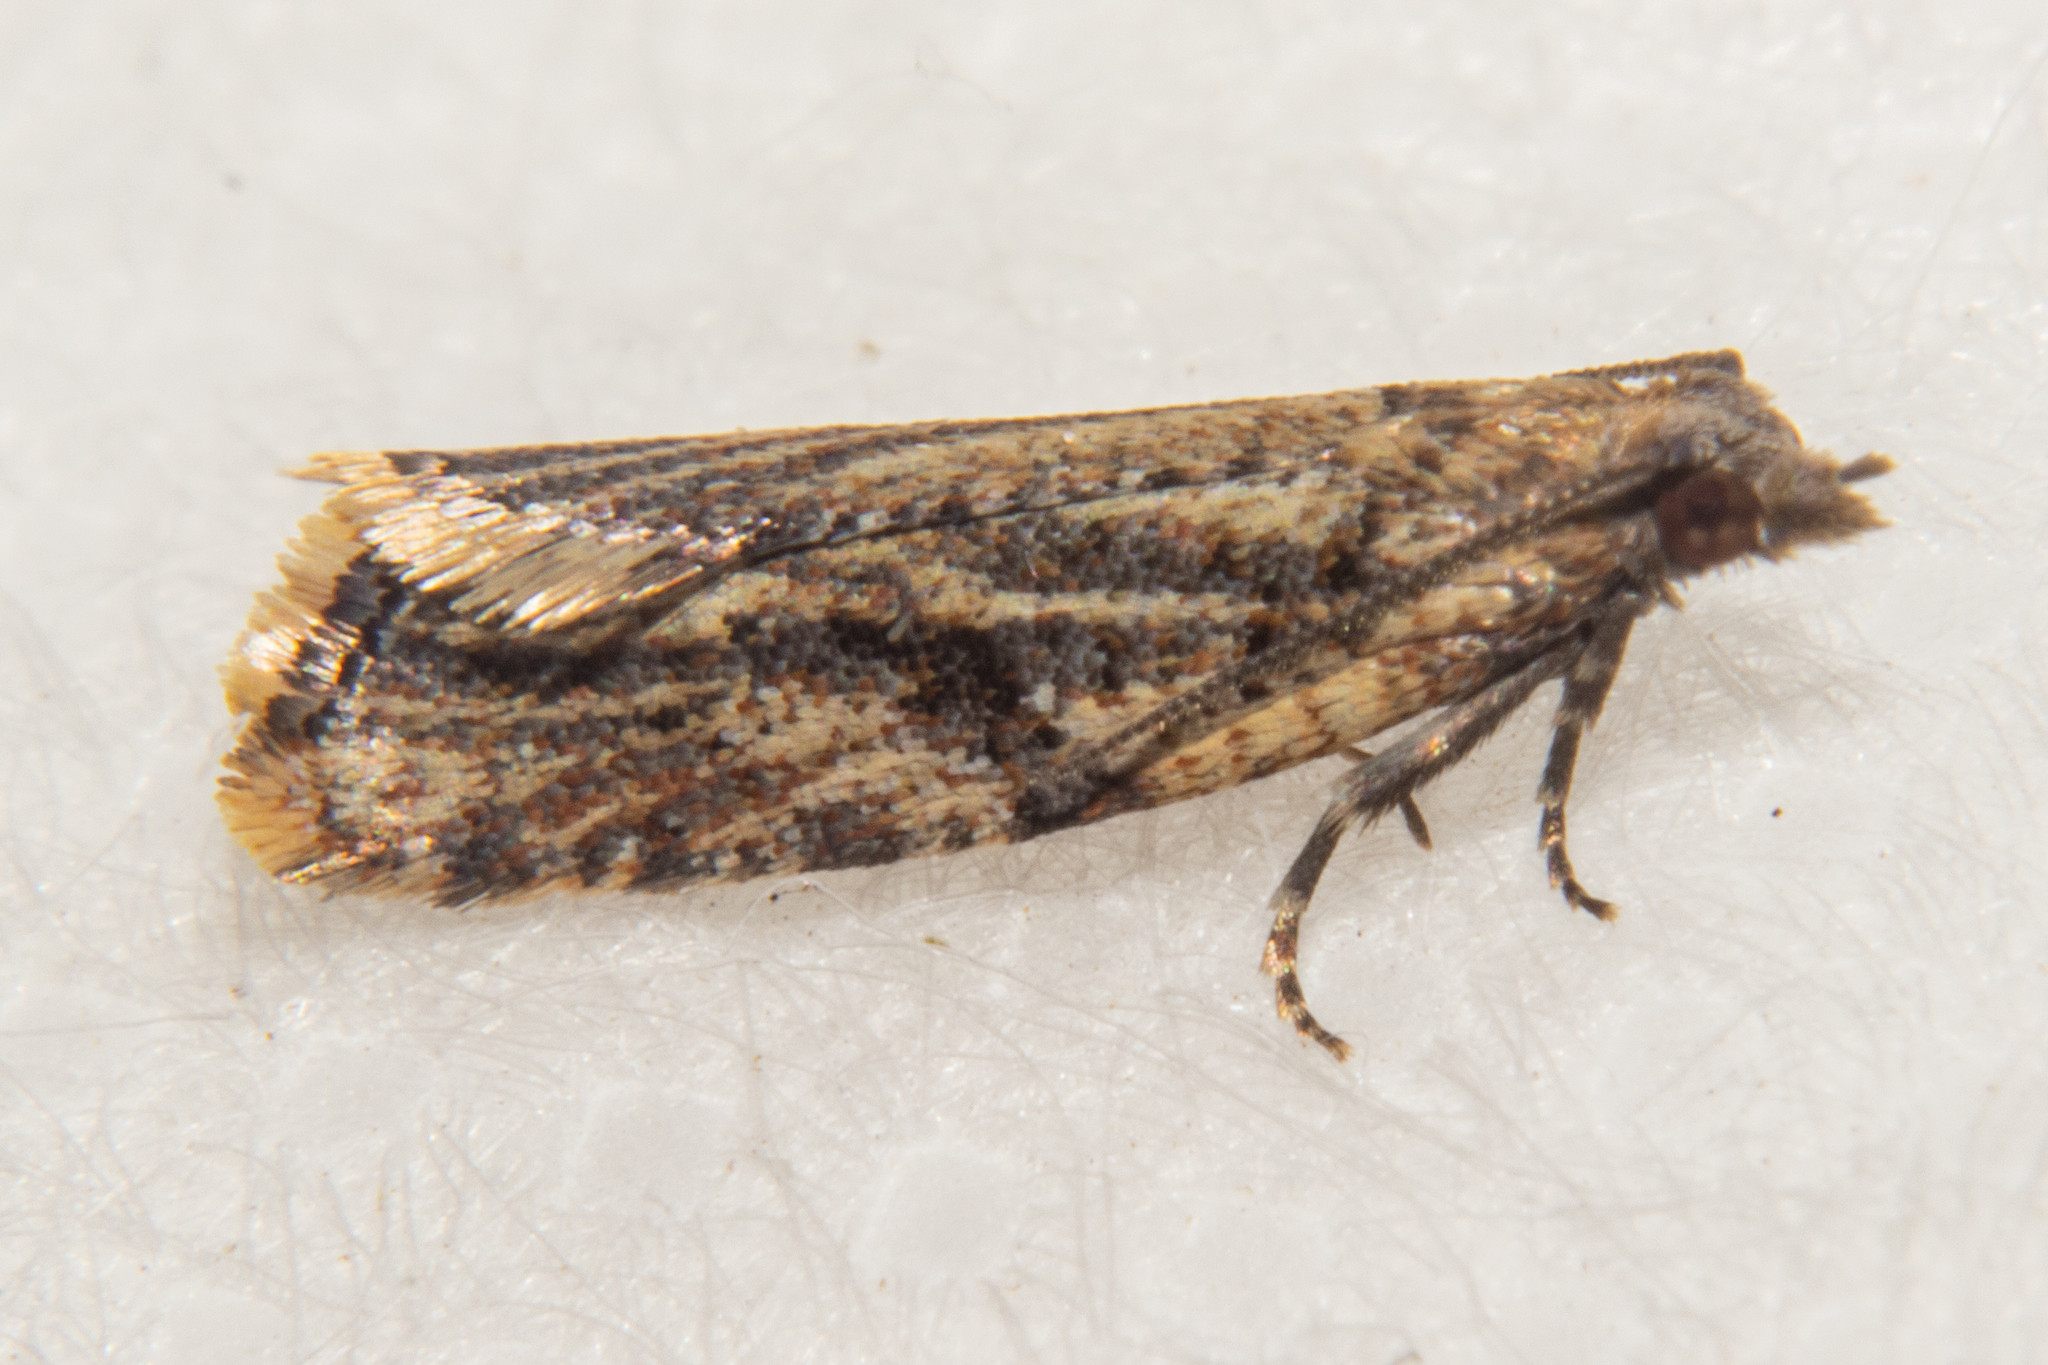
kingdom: Animalia
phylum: Arthropoda
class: Insecta
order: Lepidoptera
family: Tortricidae
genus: Capua
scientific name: Capua semiferana
